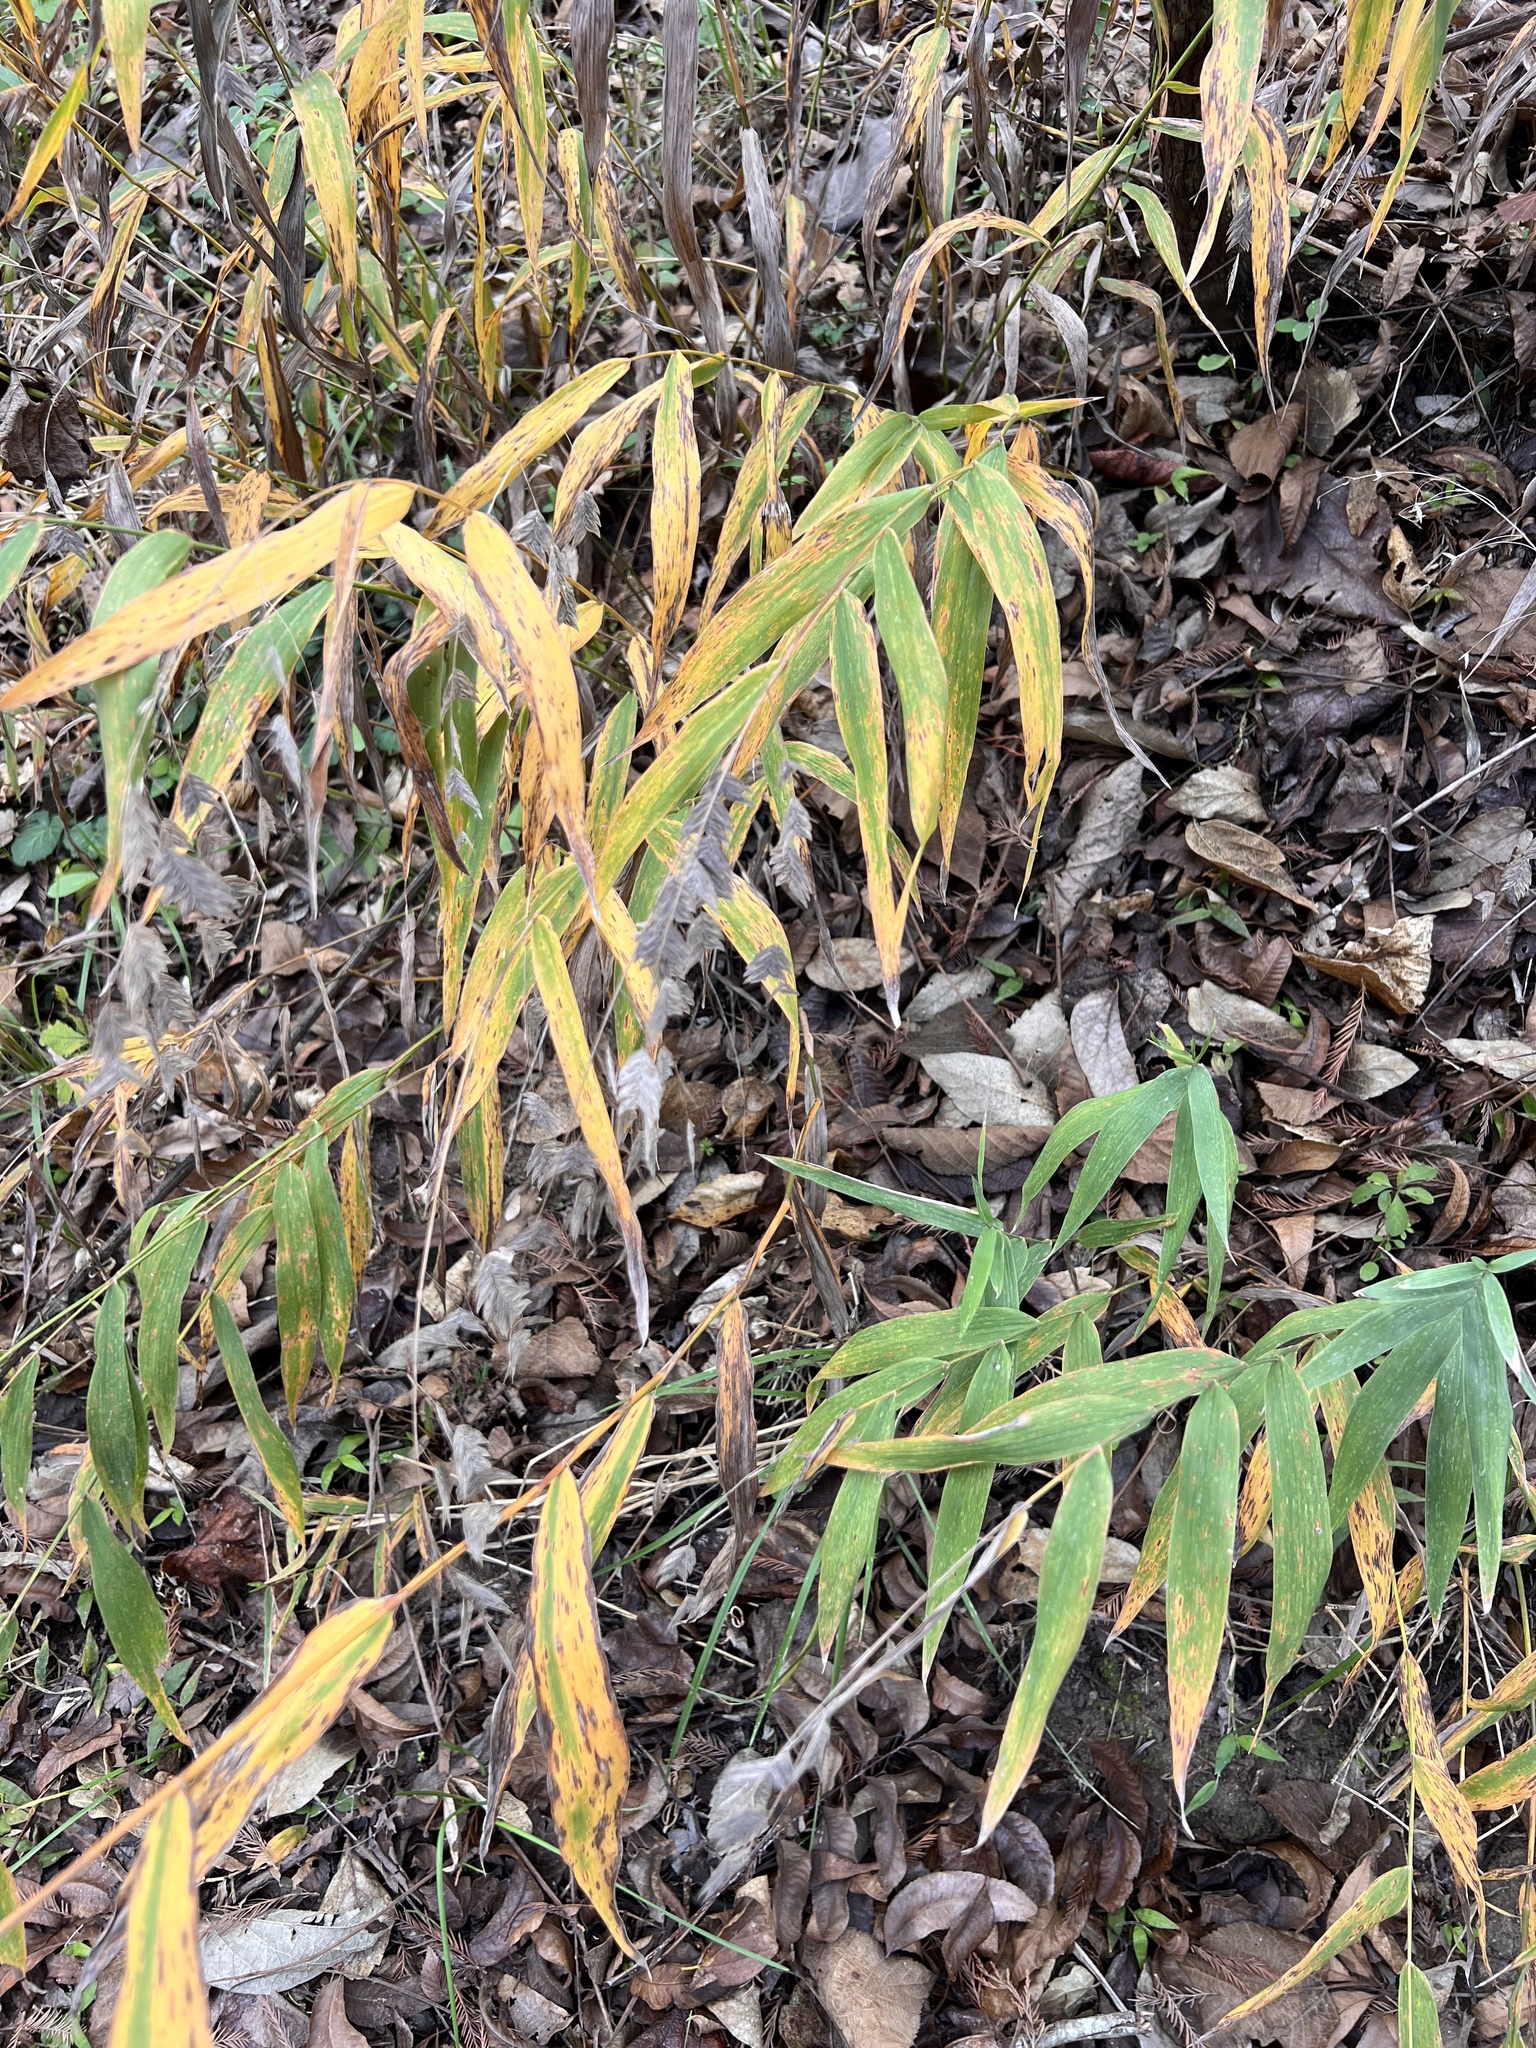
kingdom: Plantae
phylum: Tracheophyta
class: Liliopsida
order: Poales
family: Poaceae
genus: Chasmanthium
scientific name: Chasmanthium latifolium
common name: Broad-leaved chasmanthium
